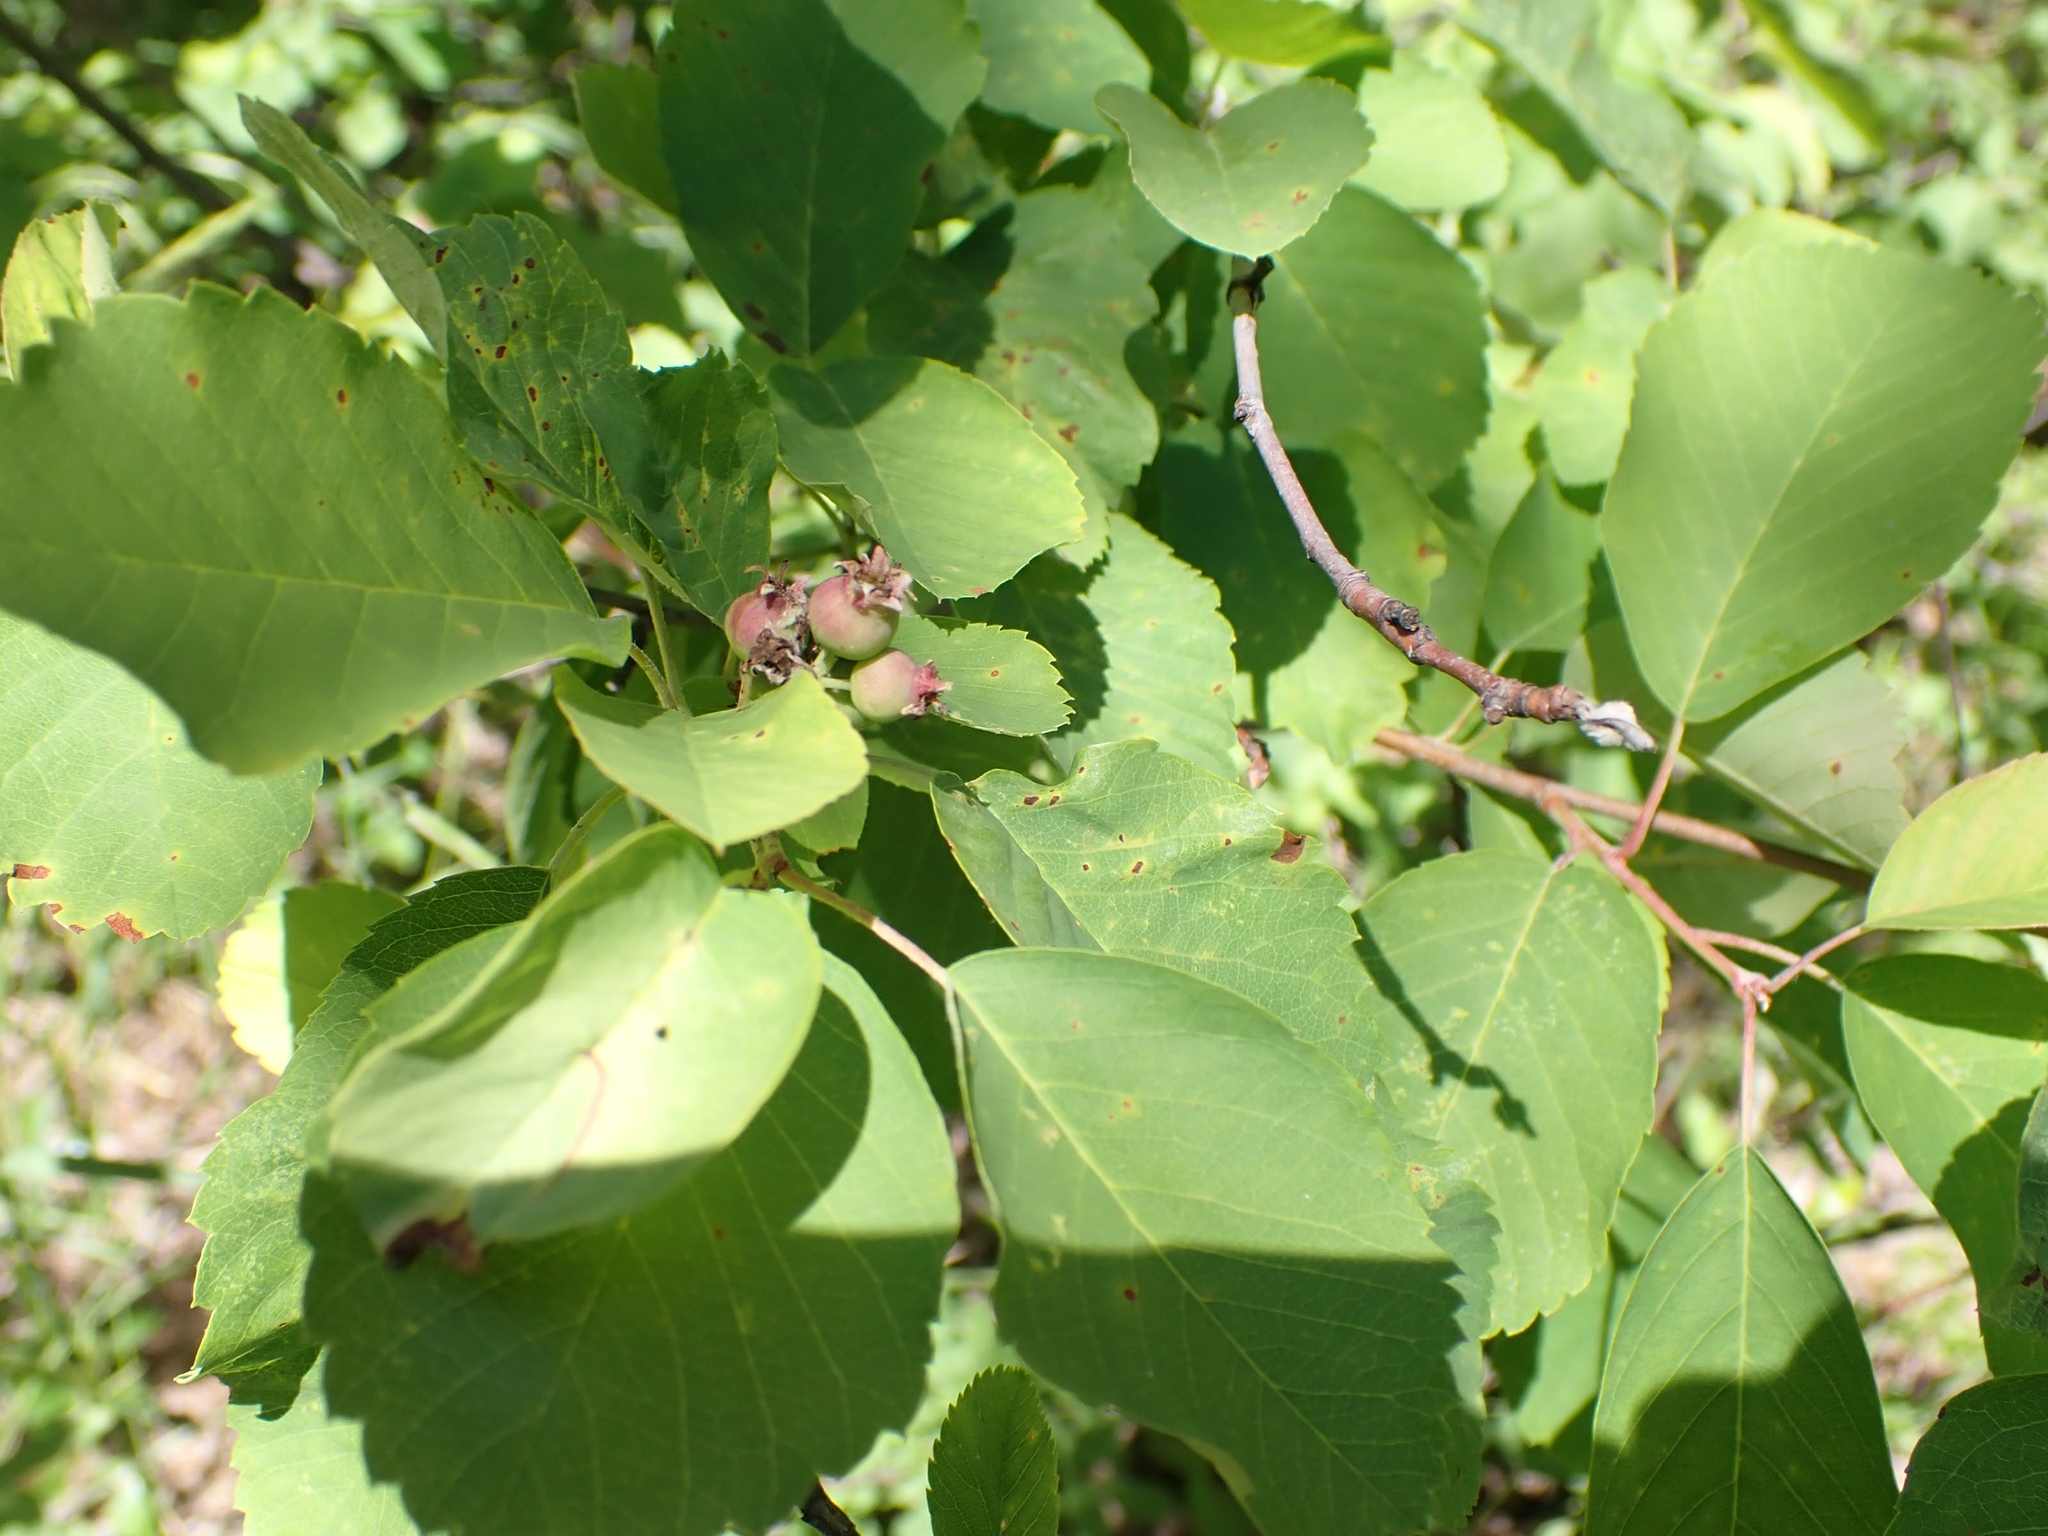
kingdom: Plantae
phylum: Tracheophyta
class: Magnoliopsida
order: Rosales
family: Rosaceae
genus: Amelanchier
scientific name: Amelanchier alnifolia
